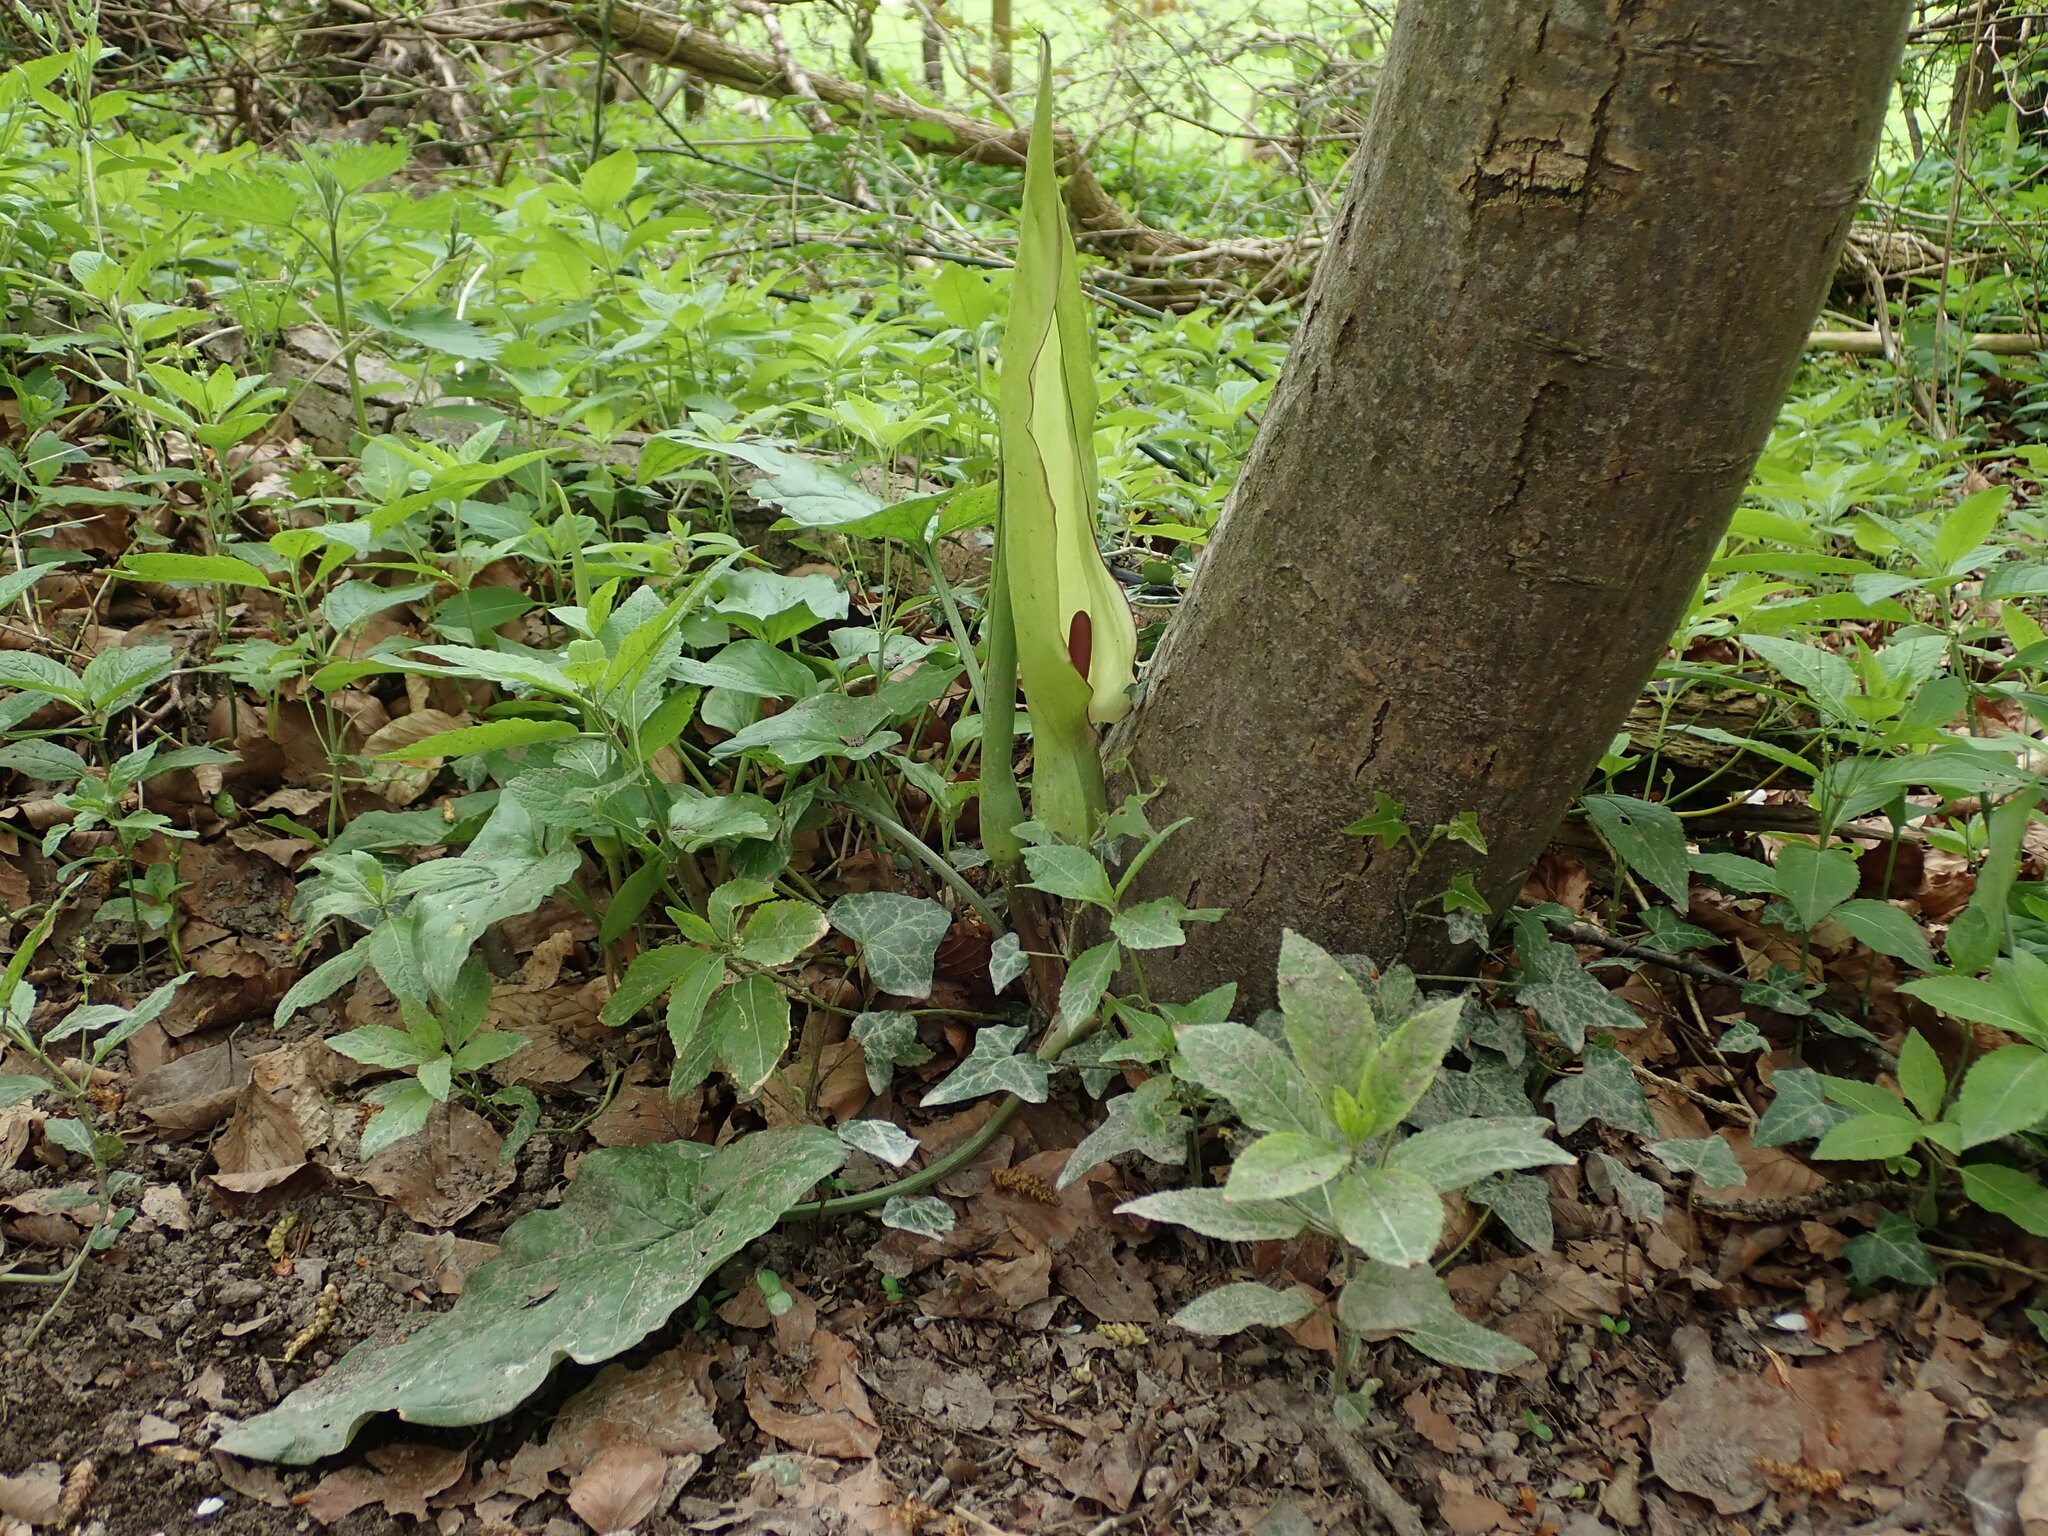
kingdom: Plantae
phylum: Tracheophyta
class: Liliopsida
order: Alismatales
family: Araceae
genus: Arum
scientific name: Arum maculatum
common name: Lords-and-ladies
